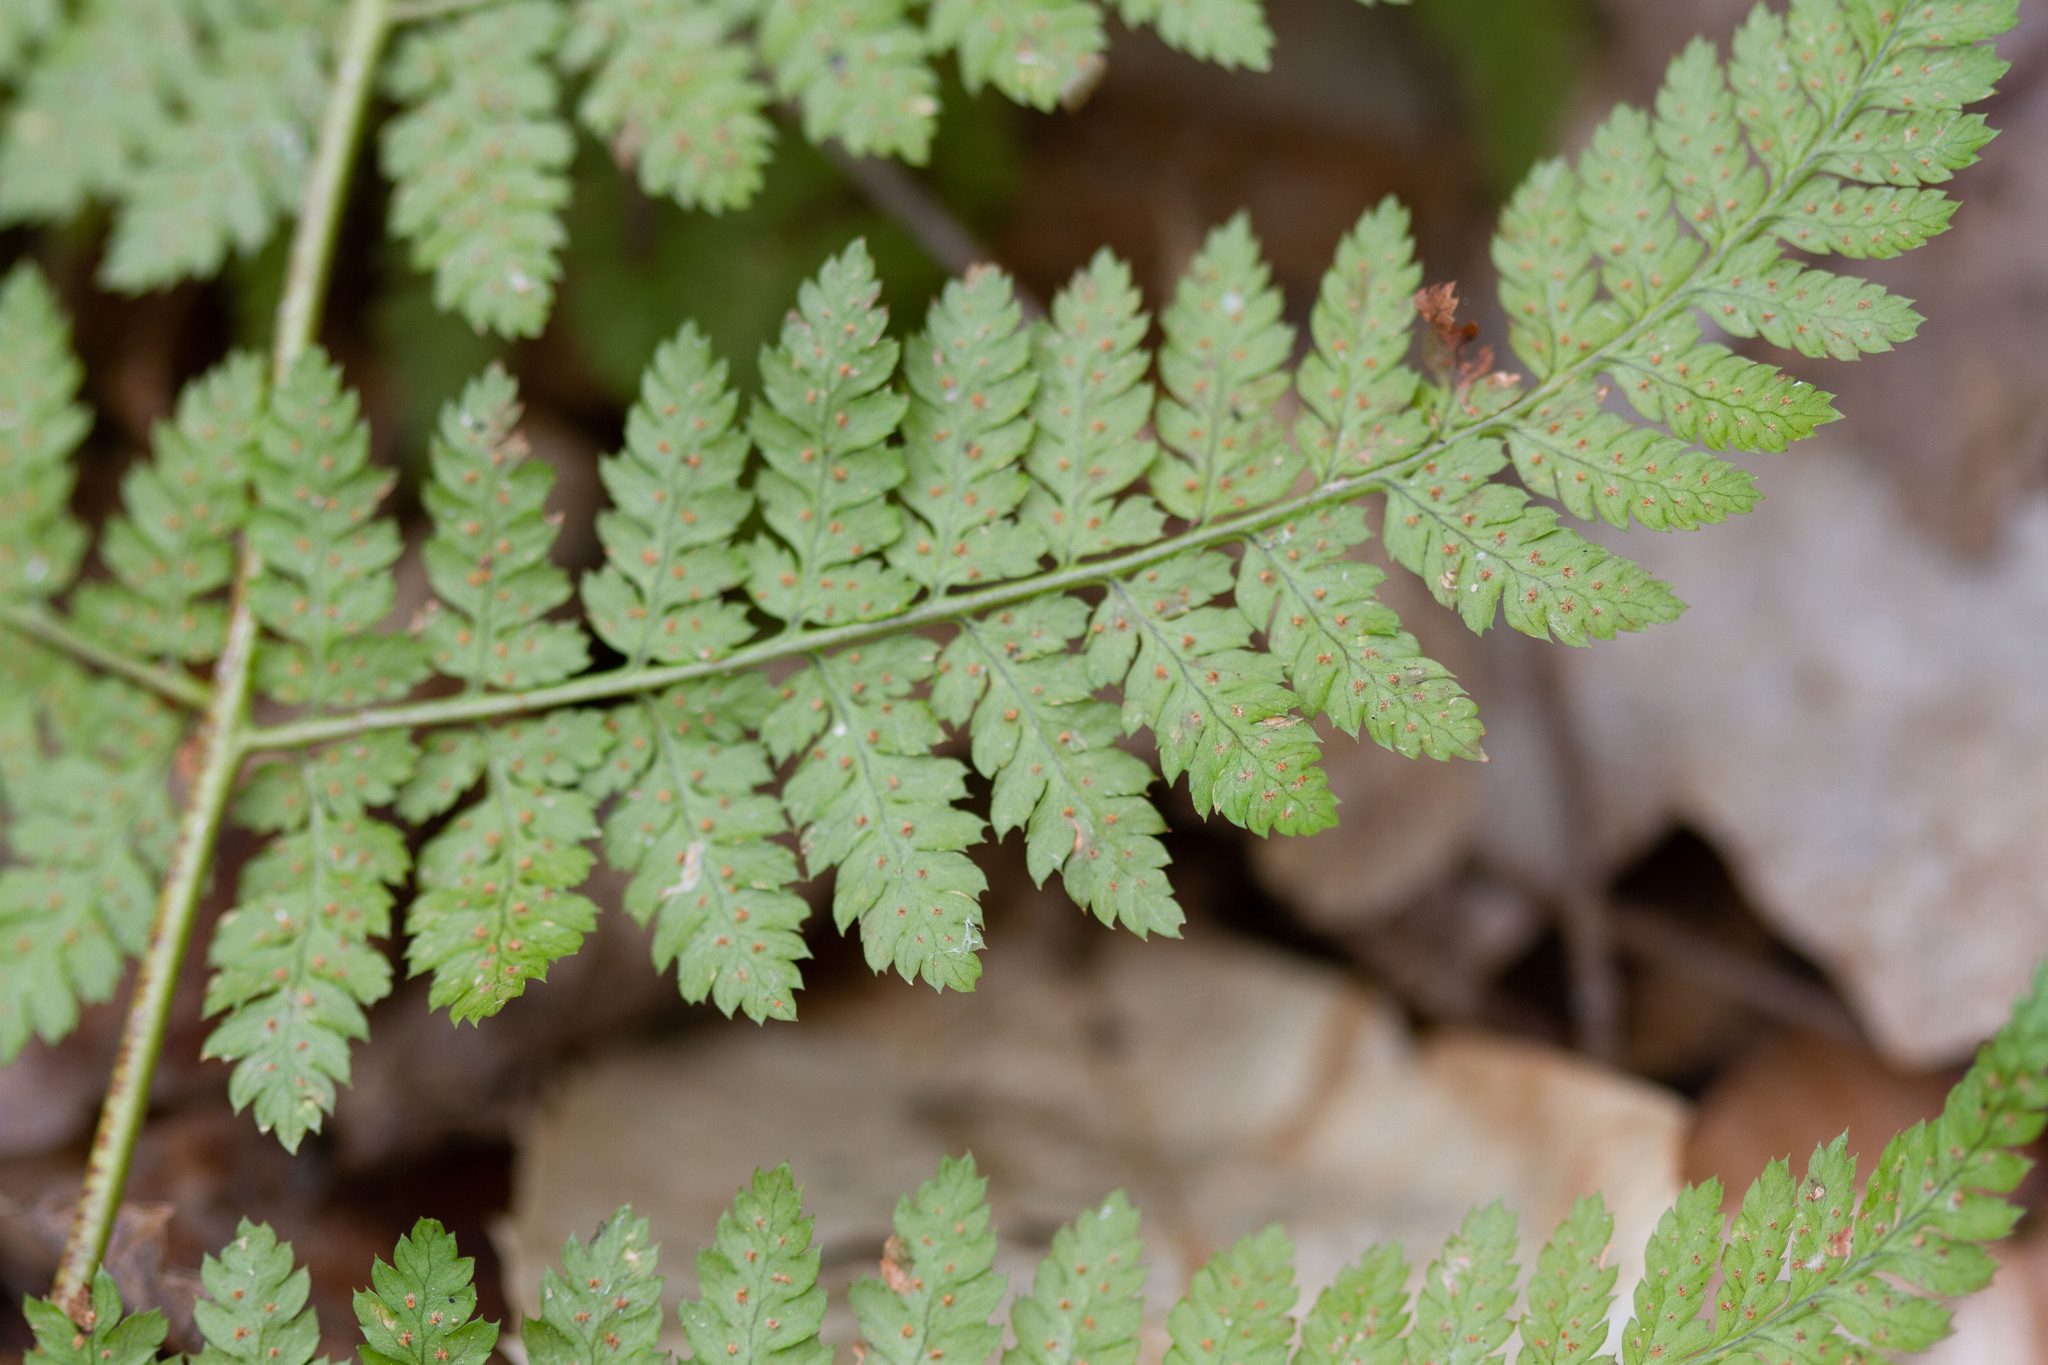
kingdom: Plantae
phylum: Tracheophyta
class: Polypodiopsida
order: Polypodiales
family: Dryopteridaceae
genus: Dryopteris
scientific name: Dryopteris intermedia
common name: Evergreen wood fern
